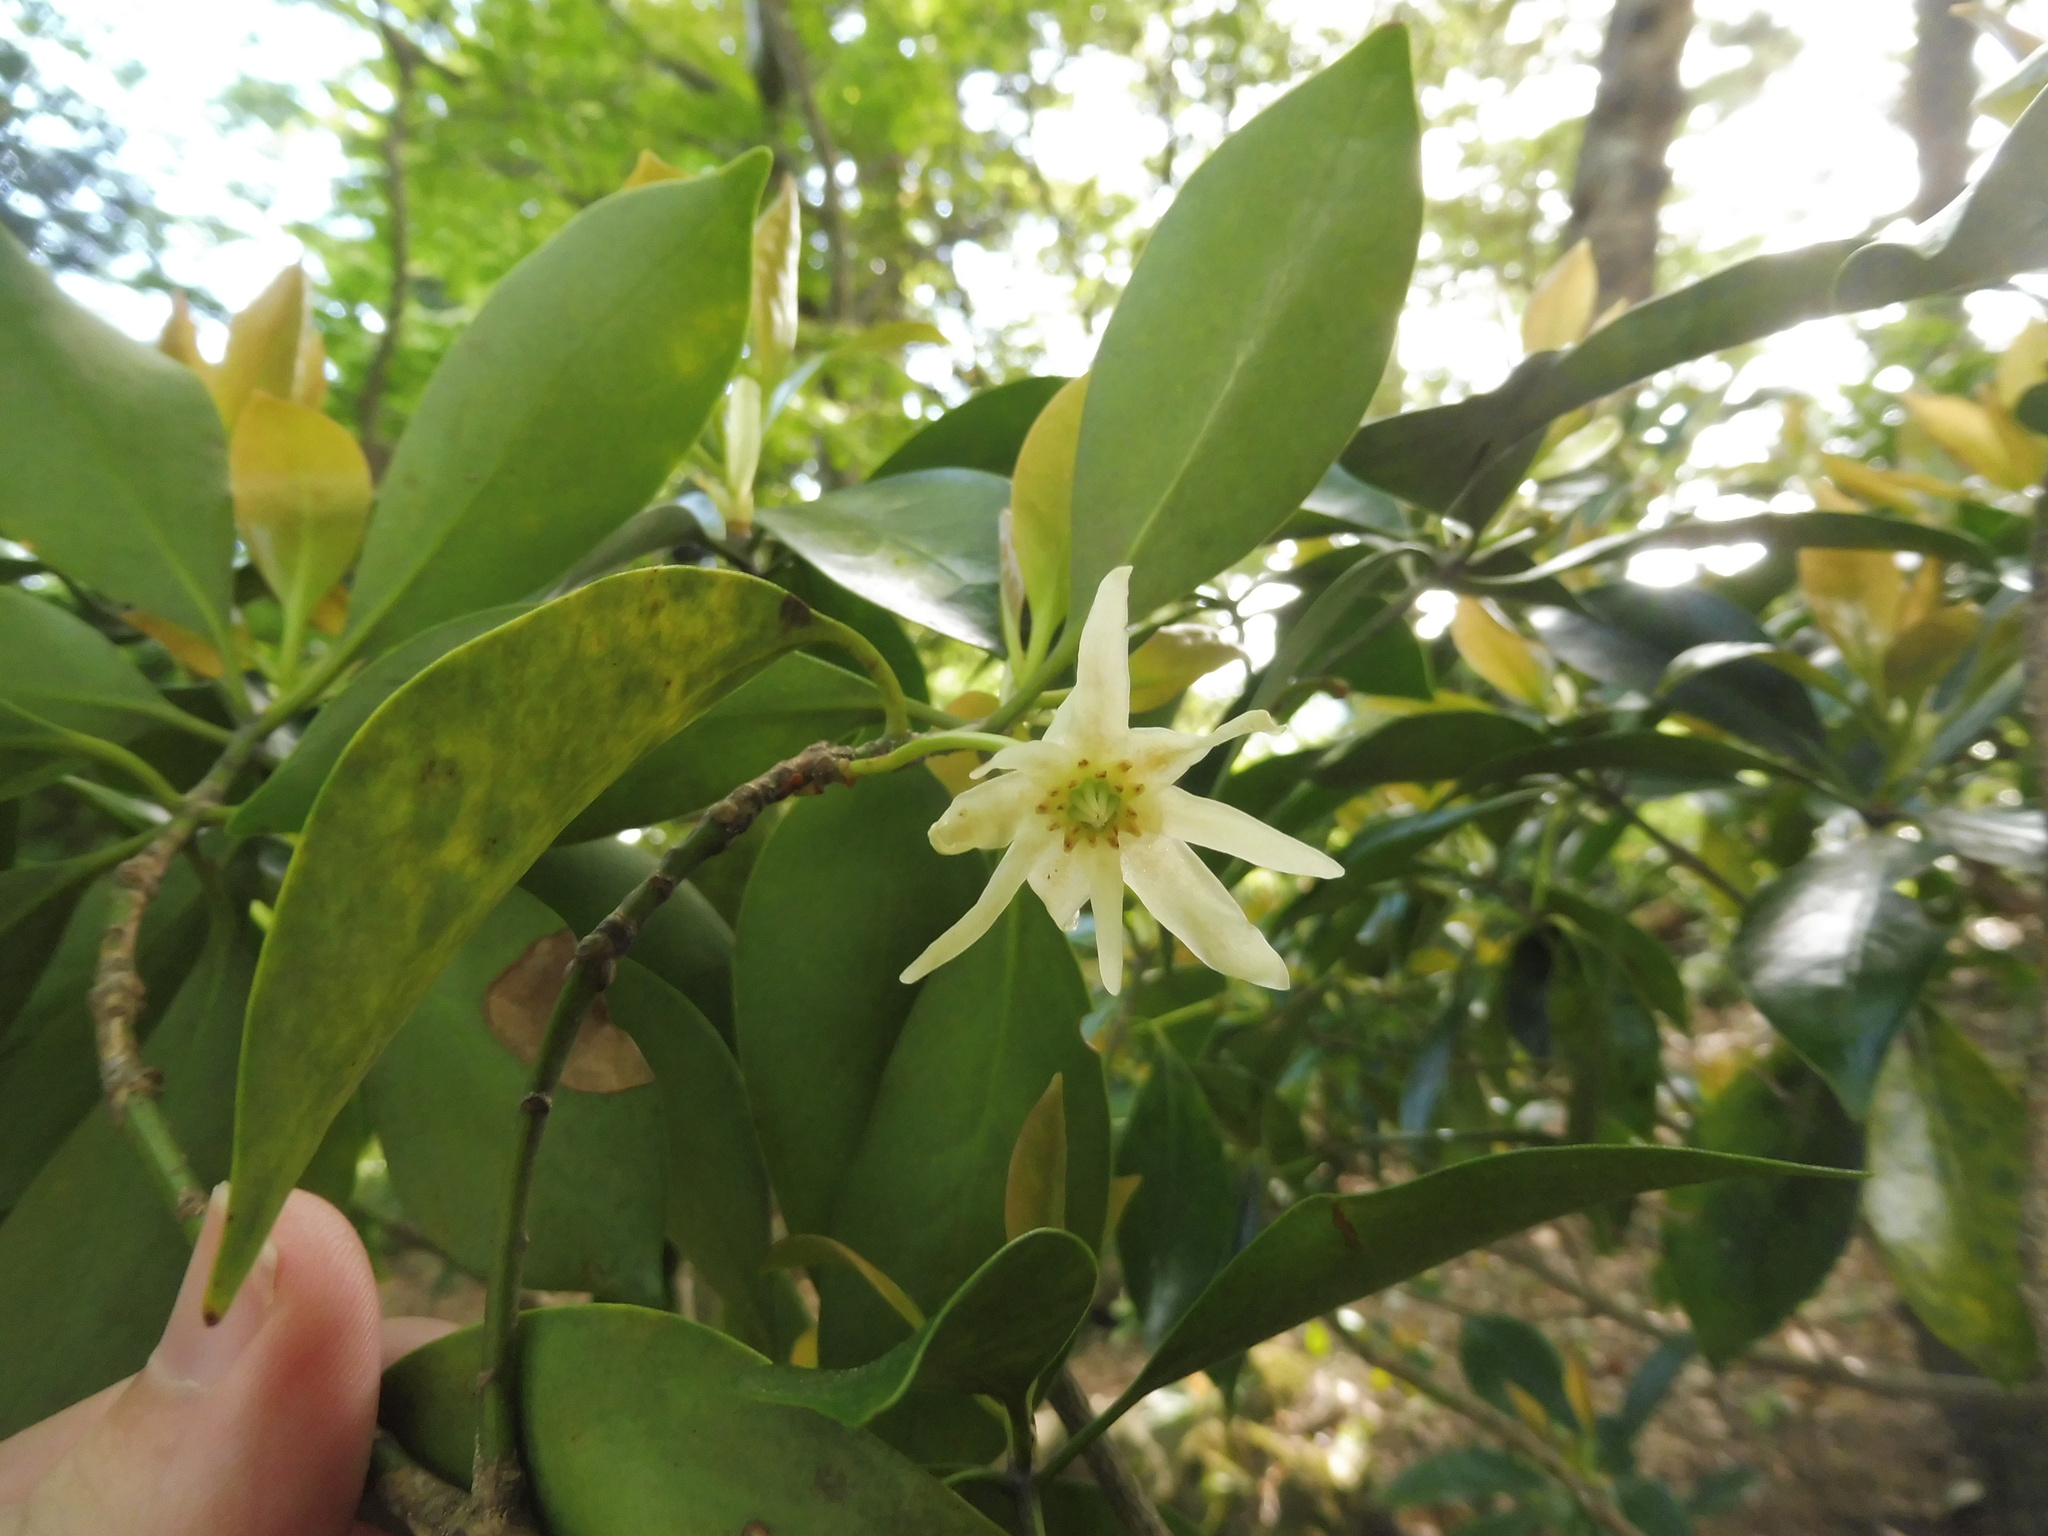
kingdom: Plantae
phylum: Tracheophyta
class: Magnoliopsida
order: Austrobaileyales
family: Schisandraceae
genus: Illicium
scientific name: Illicium anisatum
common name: Sacred anisetree
